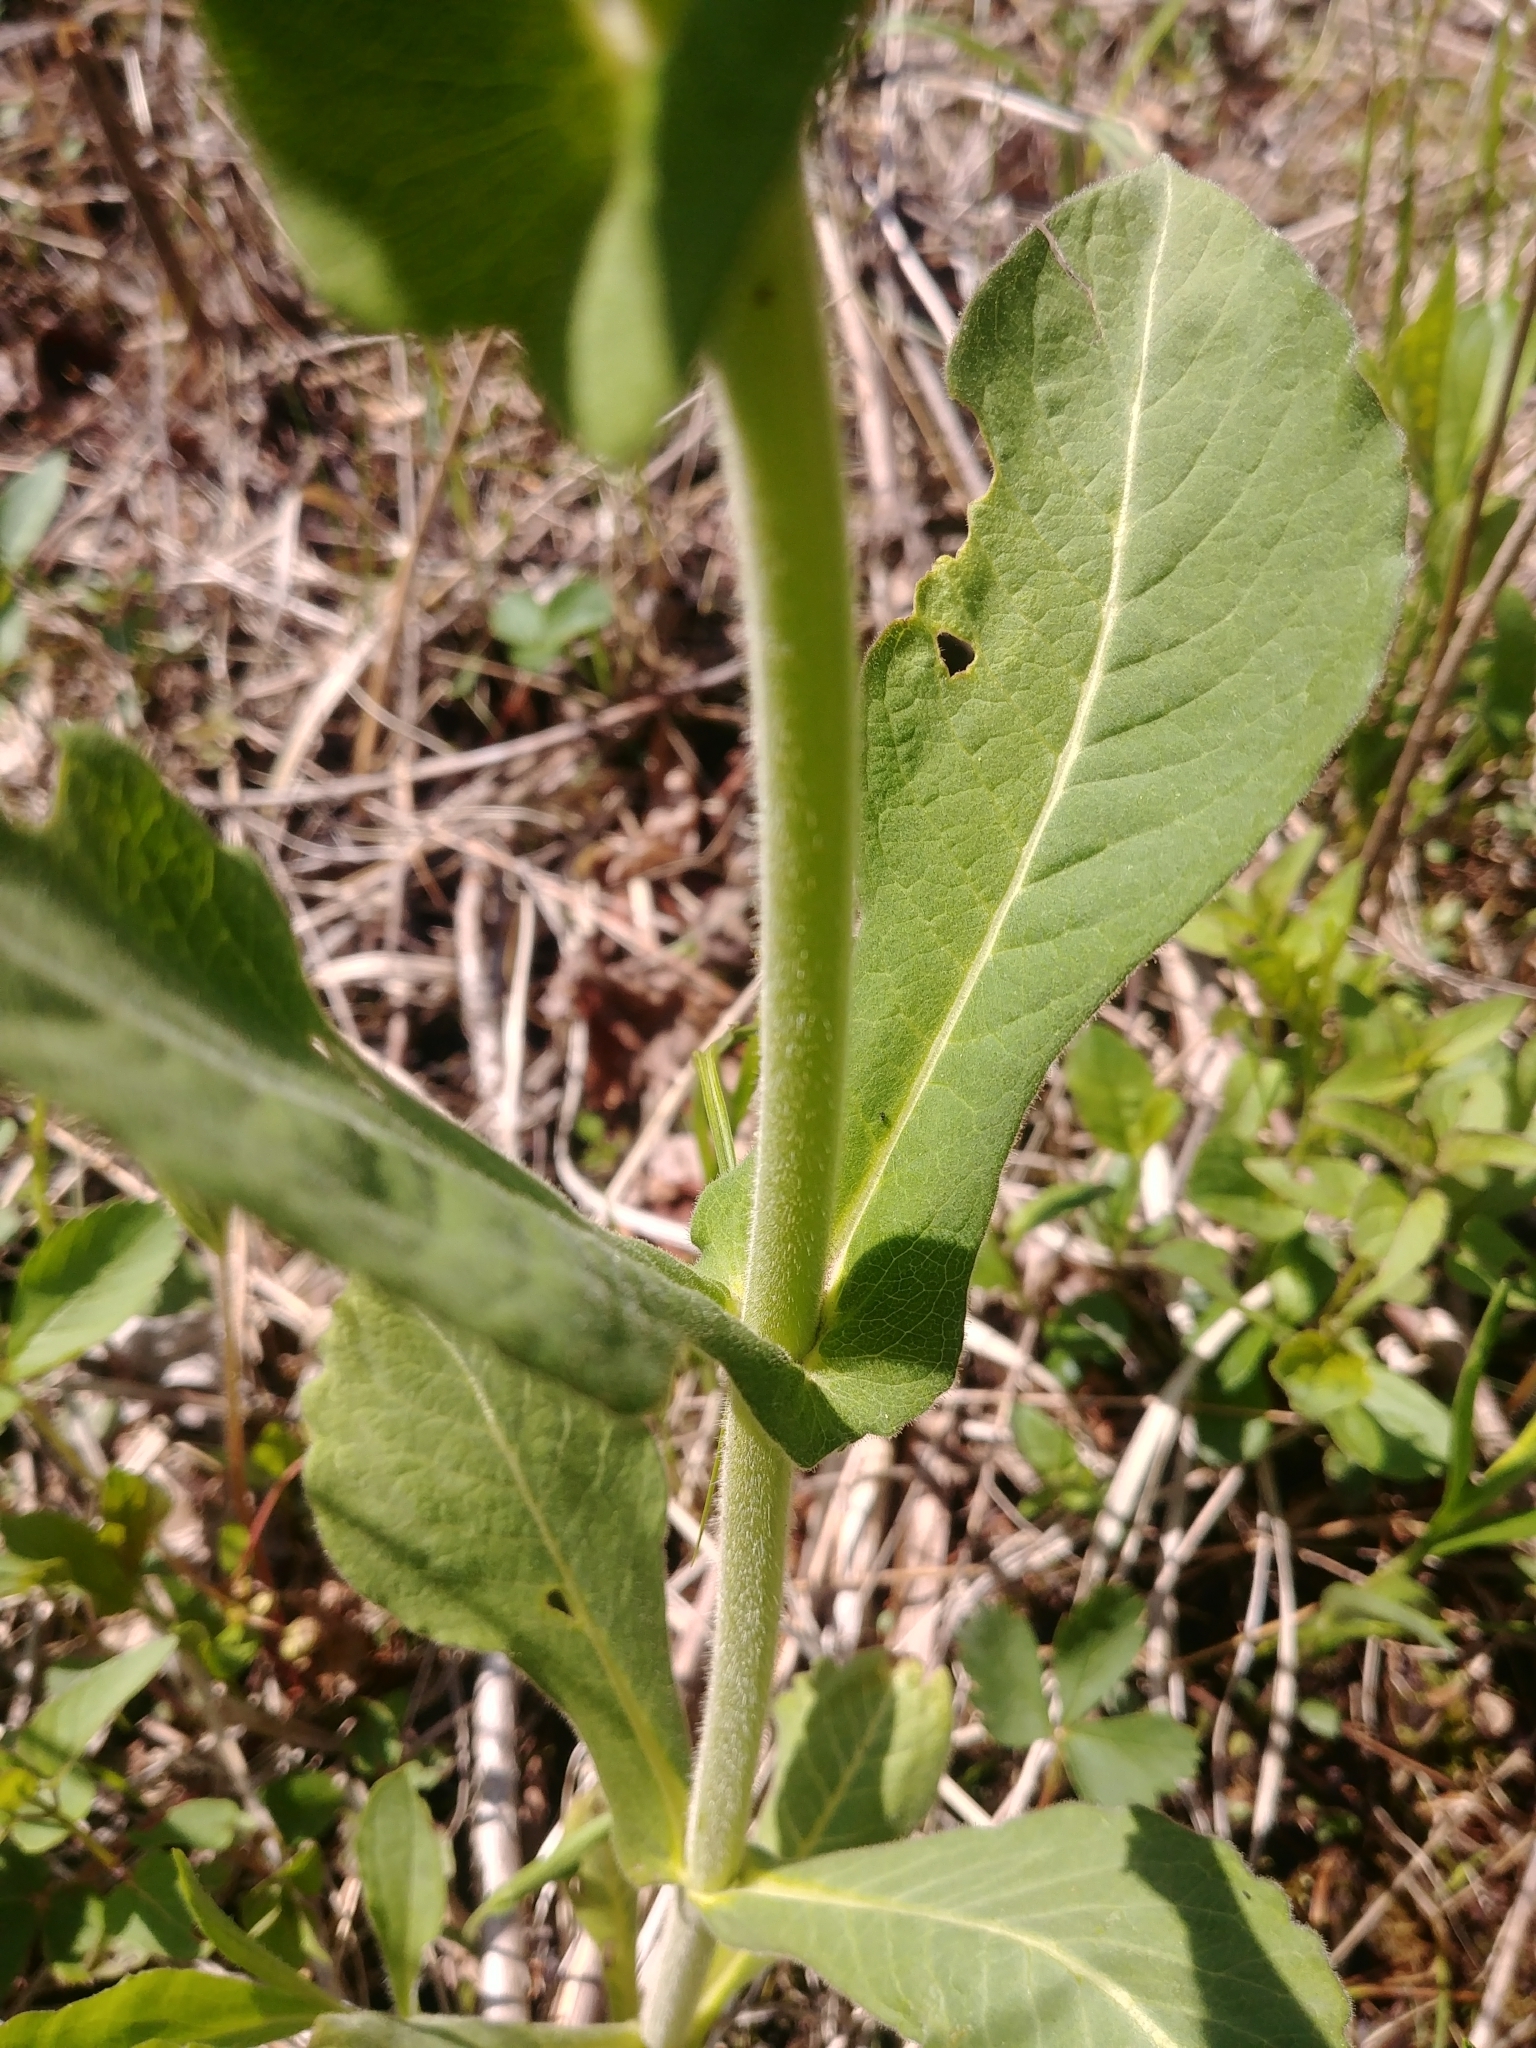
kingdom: Plantae
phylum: Tracheophyta
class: Magnoliopsida
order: Dipsacales
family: Caprifoliaceae
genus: Triosteum
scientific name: Triosteum perfoliatum
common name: Common horse-gentian
